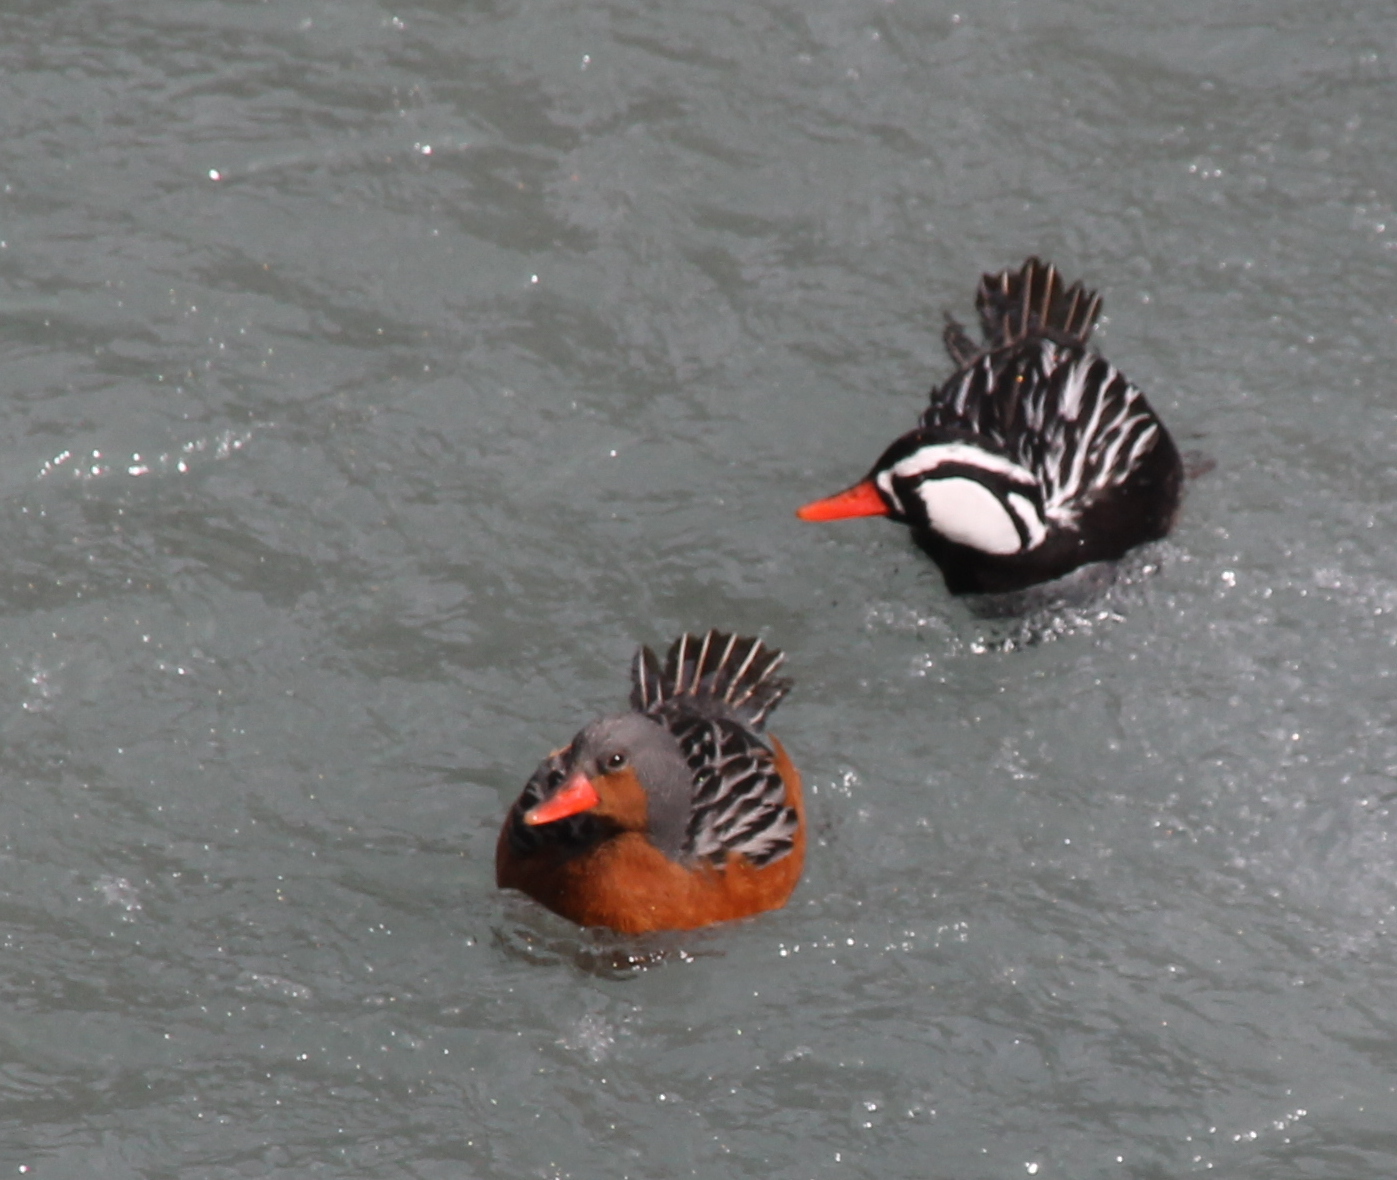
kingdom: Animalia
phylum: Chordata
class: Aves
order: Anseriformes
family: Anatidae
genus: Merganetta
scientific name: Merganetta armata
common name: Torrent duck
